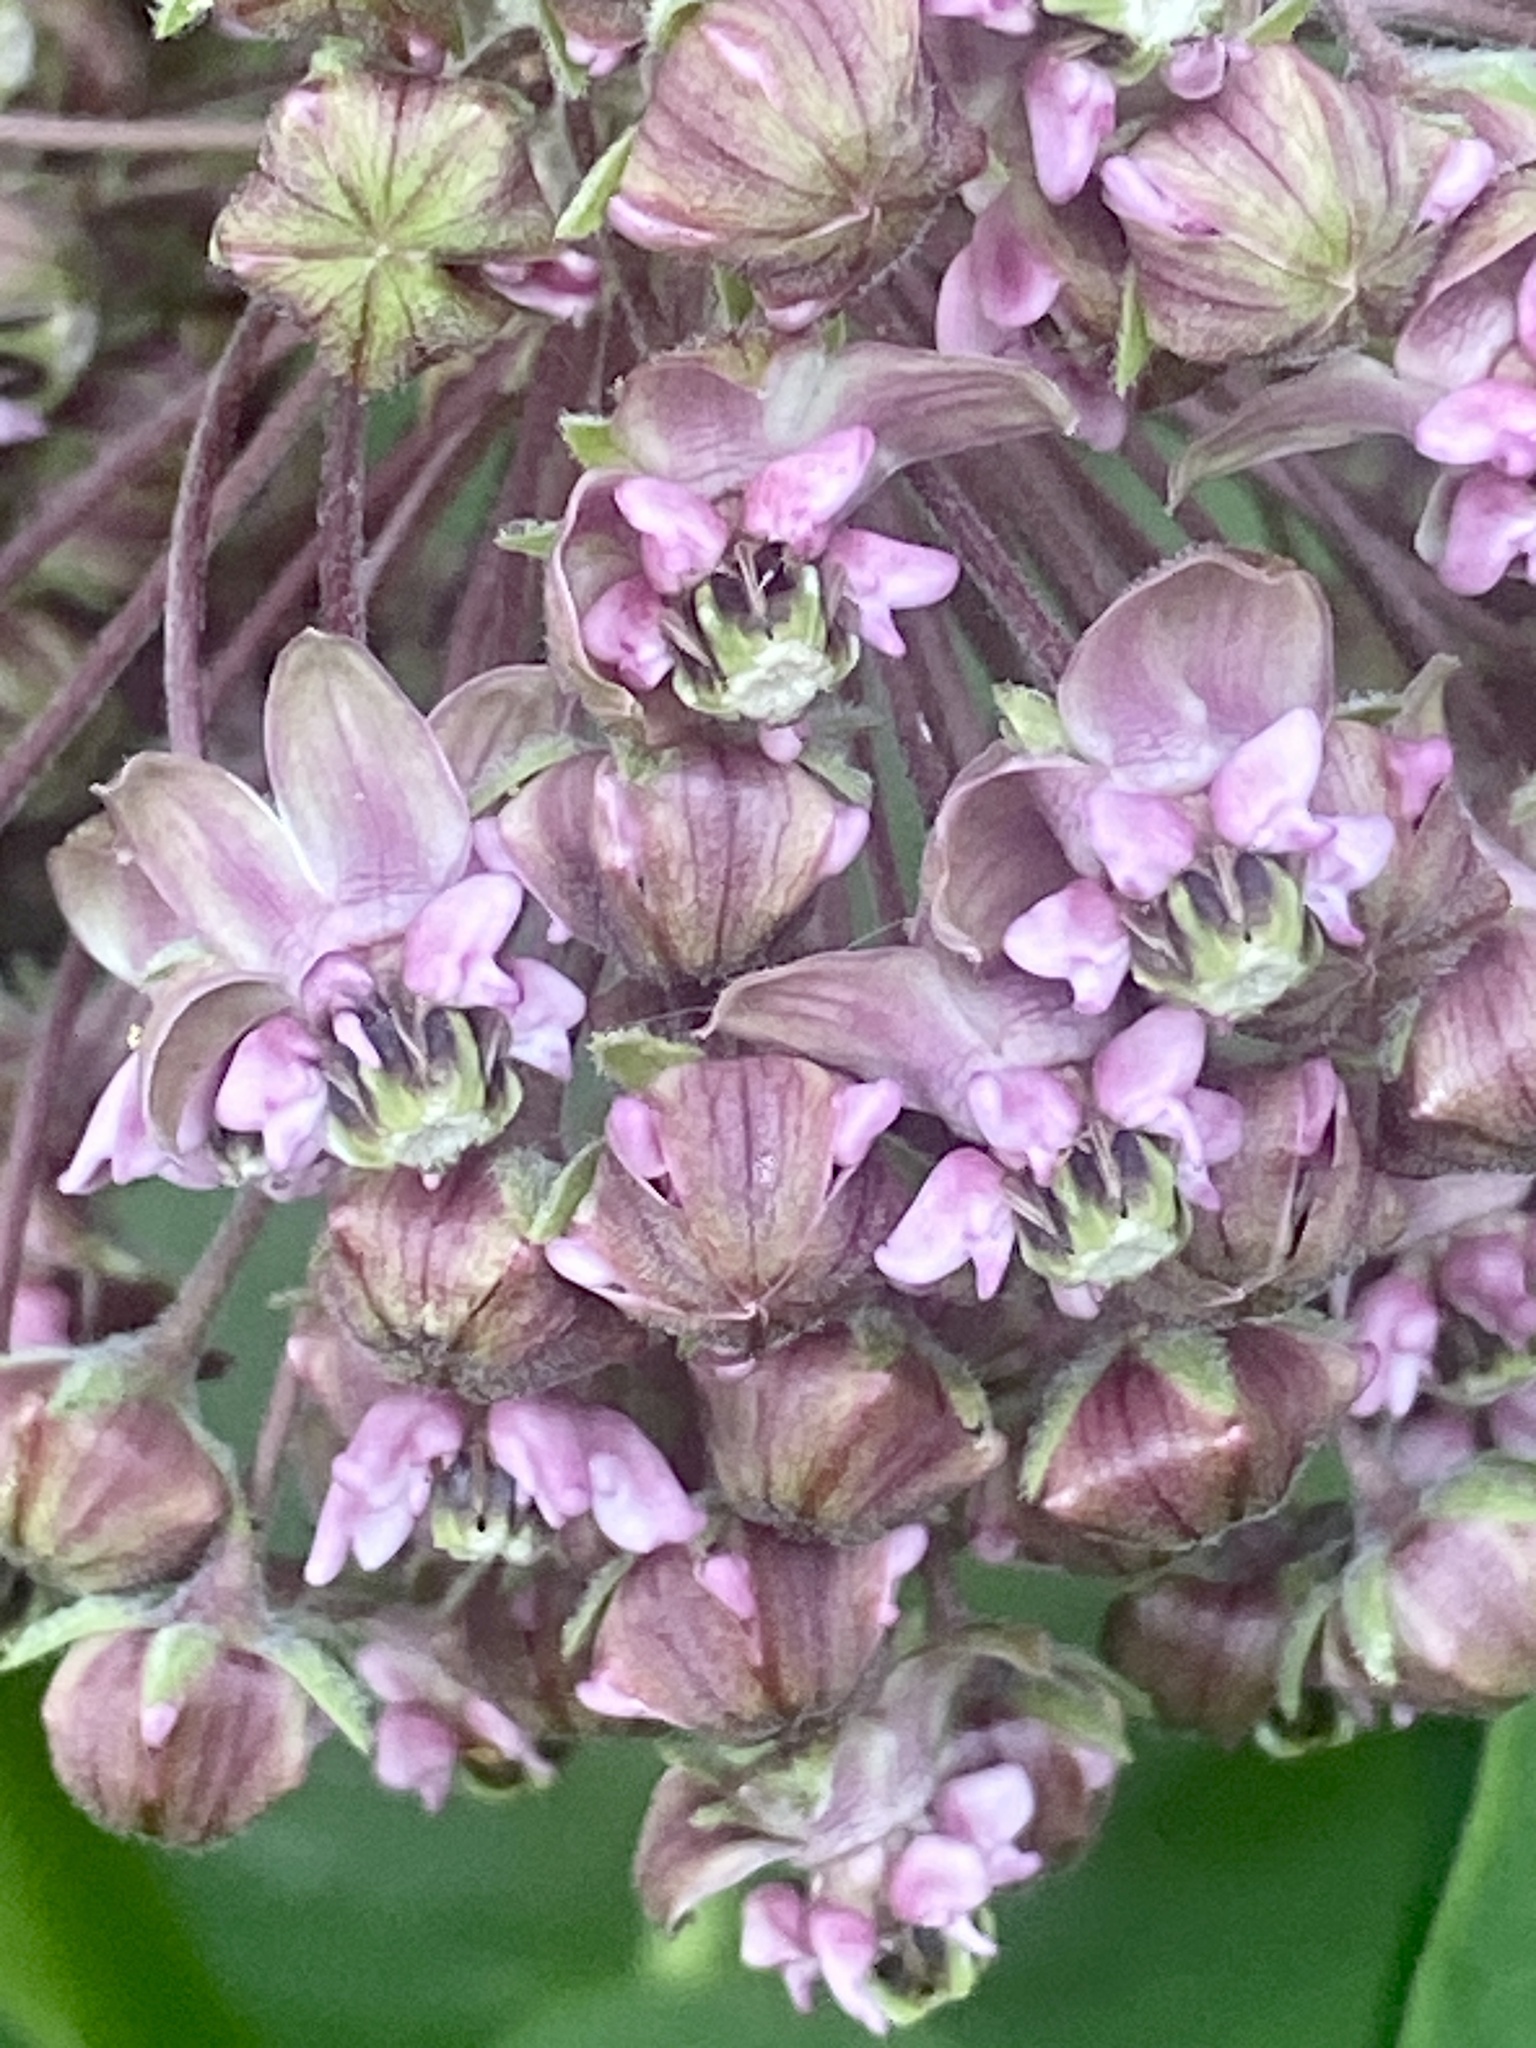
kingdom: Plantae
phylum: Tracheophyta
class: Magnoliopsida
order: Gentianales
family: Apocynaceae
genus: Asclepias
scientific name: Asclepias syriaca
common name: Common milkweed
